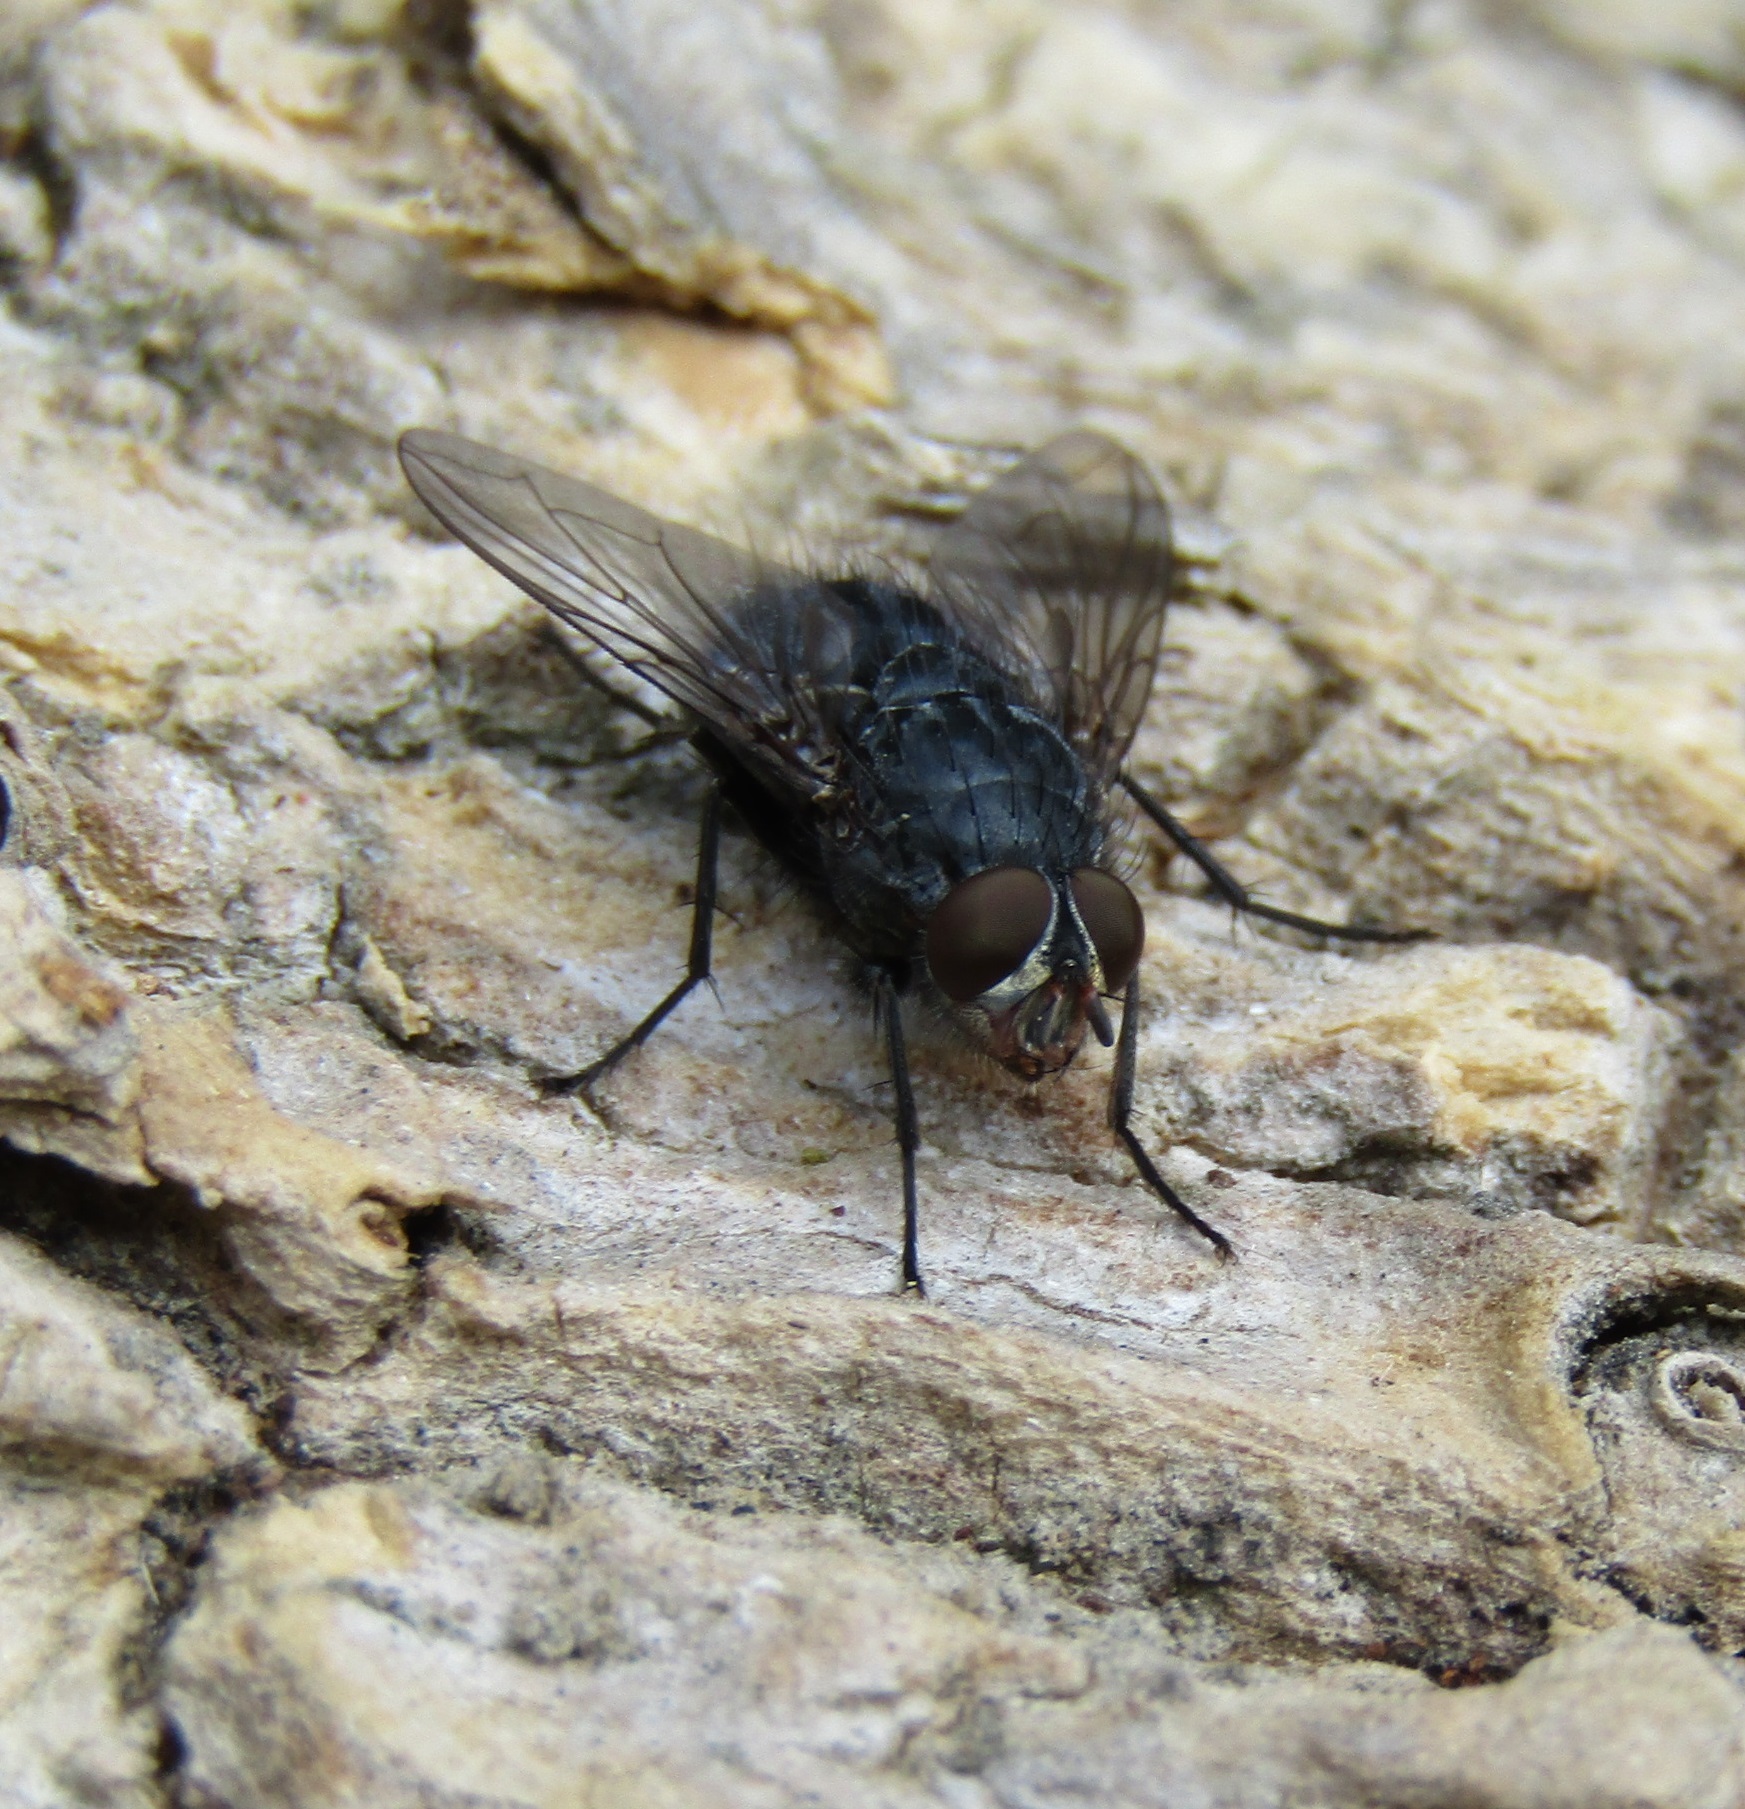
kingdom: Animalia
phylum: Arthropoda
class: Insecta
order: Diptera
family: Calliphoridae
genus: Calliphora
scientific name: Calliphora vicina
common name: Common blow flie
